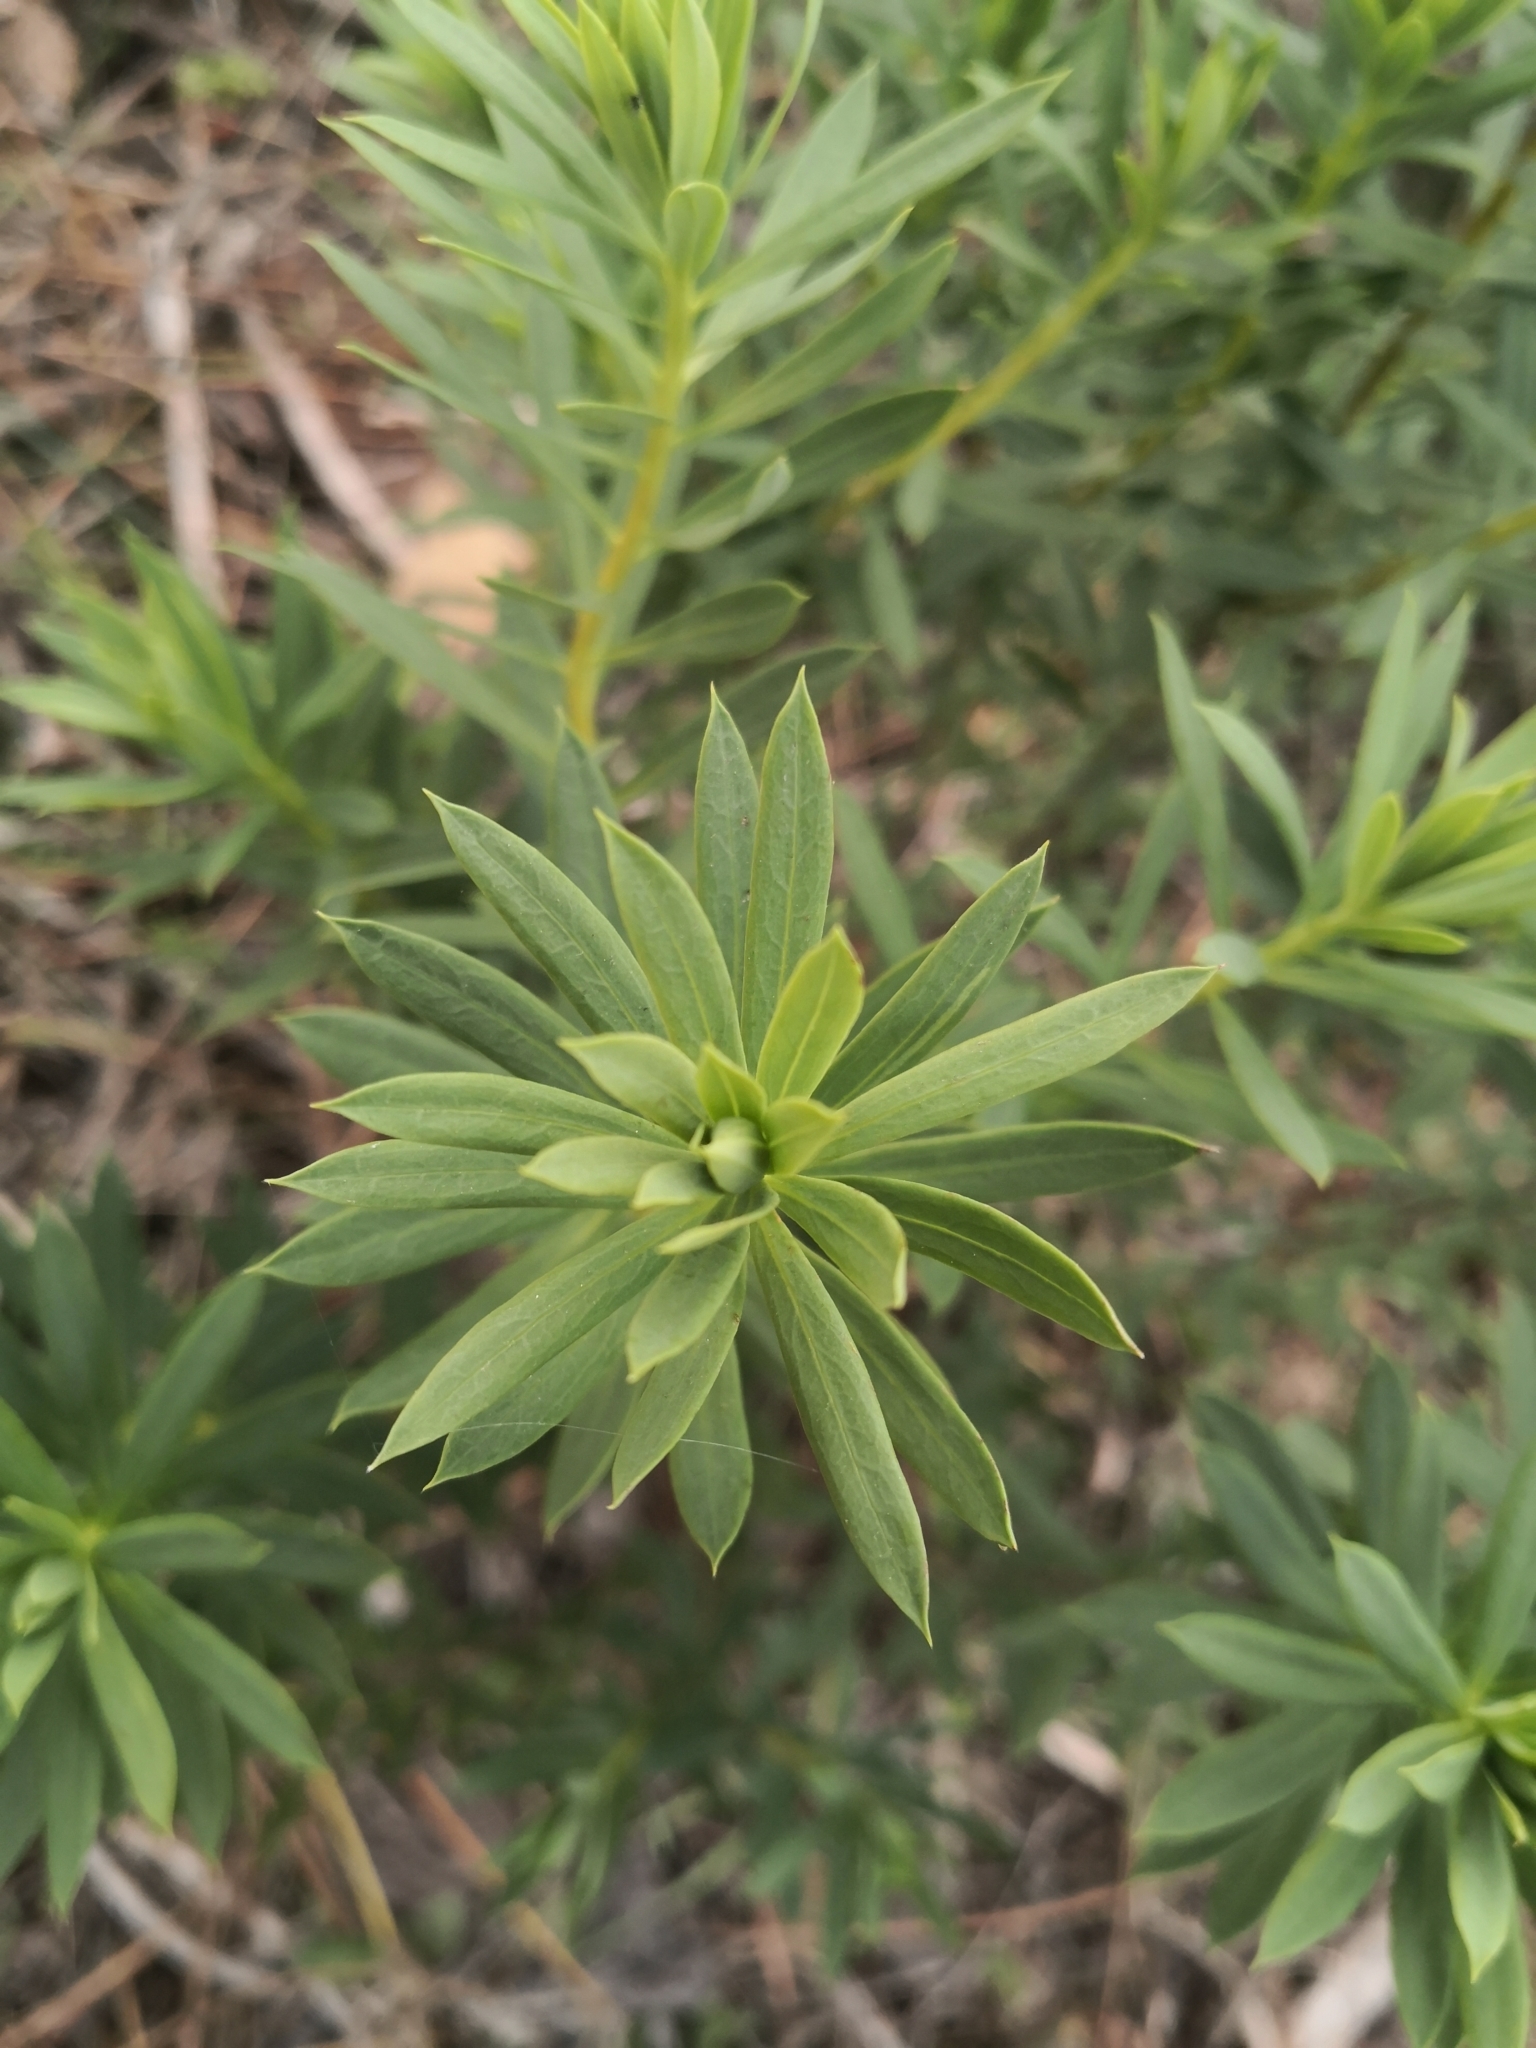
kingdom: Plantae
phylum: Tracheophyta
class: Magnoliopsida
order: Malvales
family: Thymelaeaceae
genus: Daphne
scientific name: Daphne gnidium
